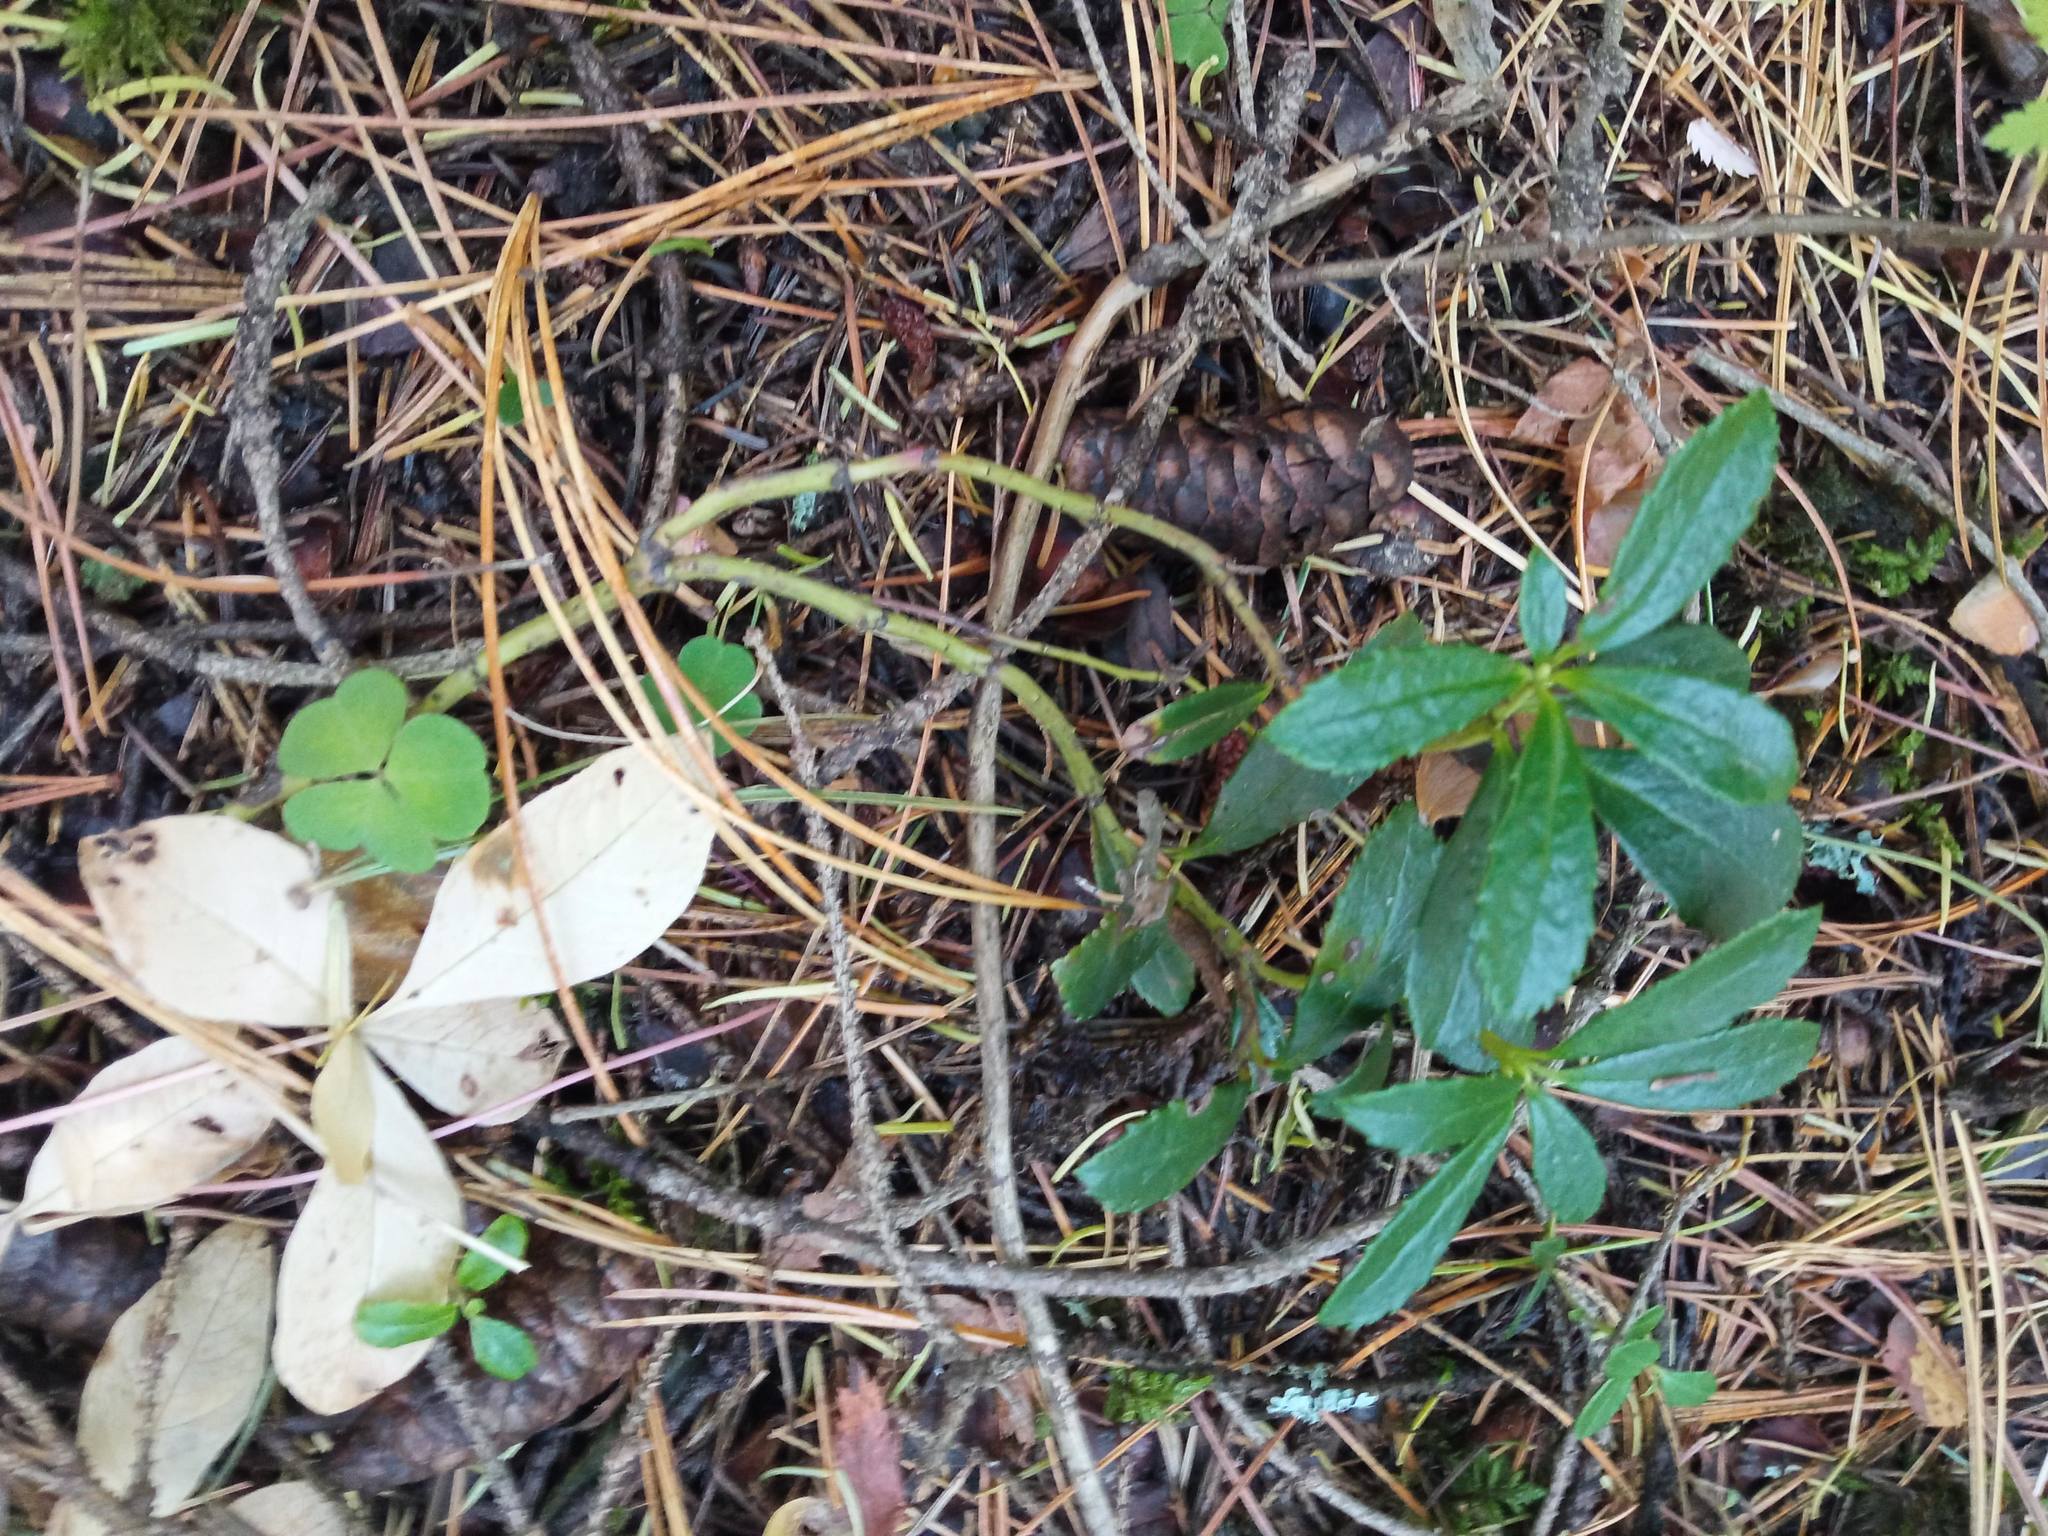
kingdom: Plantae
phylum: Tracheophyta
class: Magnoliopsida
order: Ericales
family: Ericaceae
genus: Chimaphila
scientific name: Chimaphila umbellata
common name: Pipsissewa
